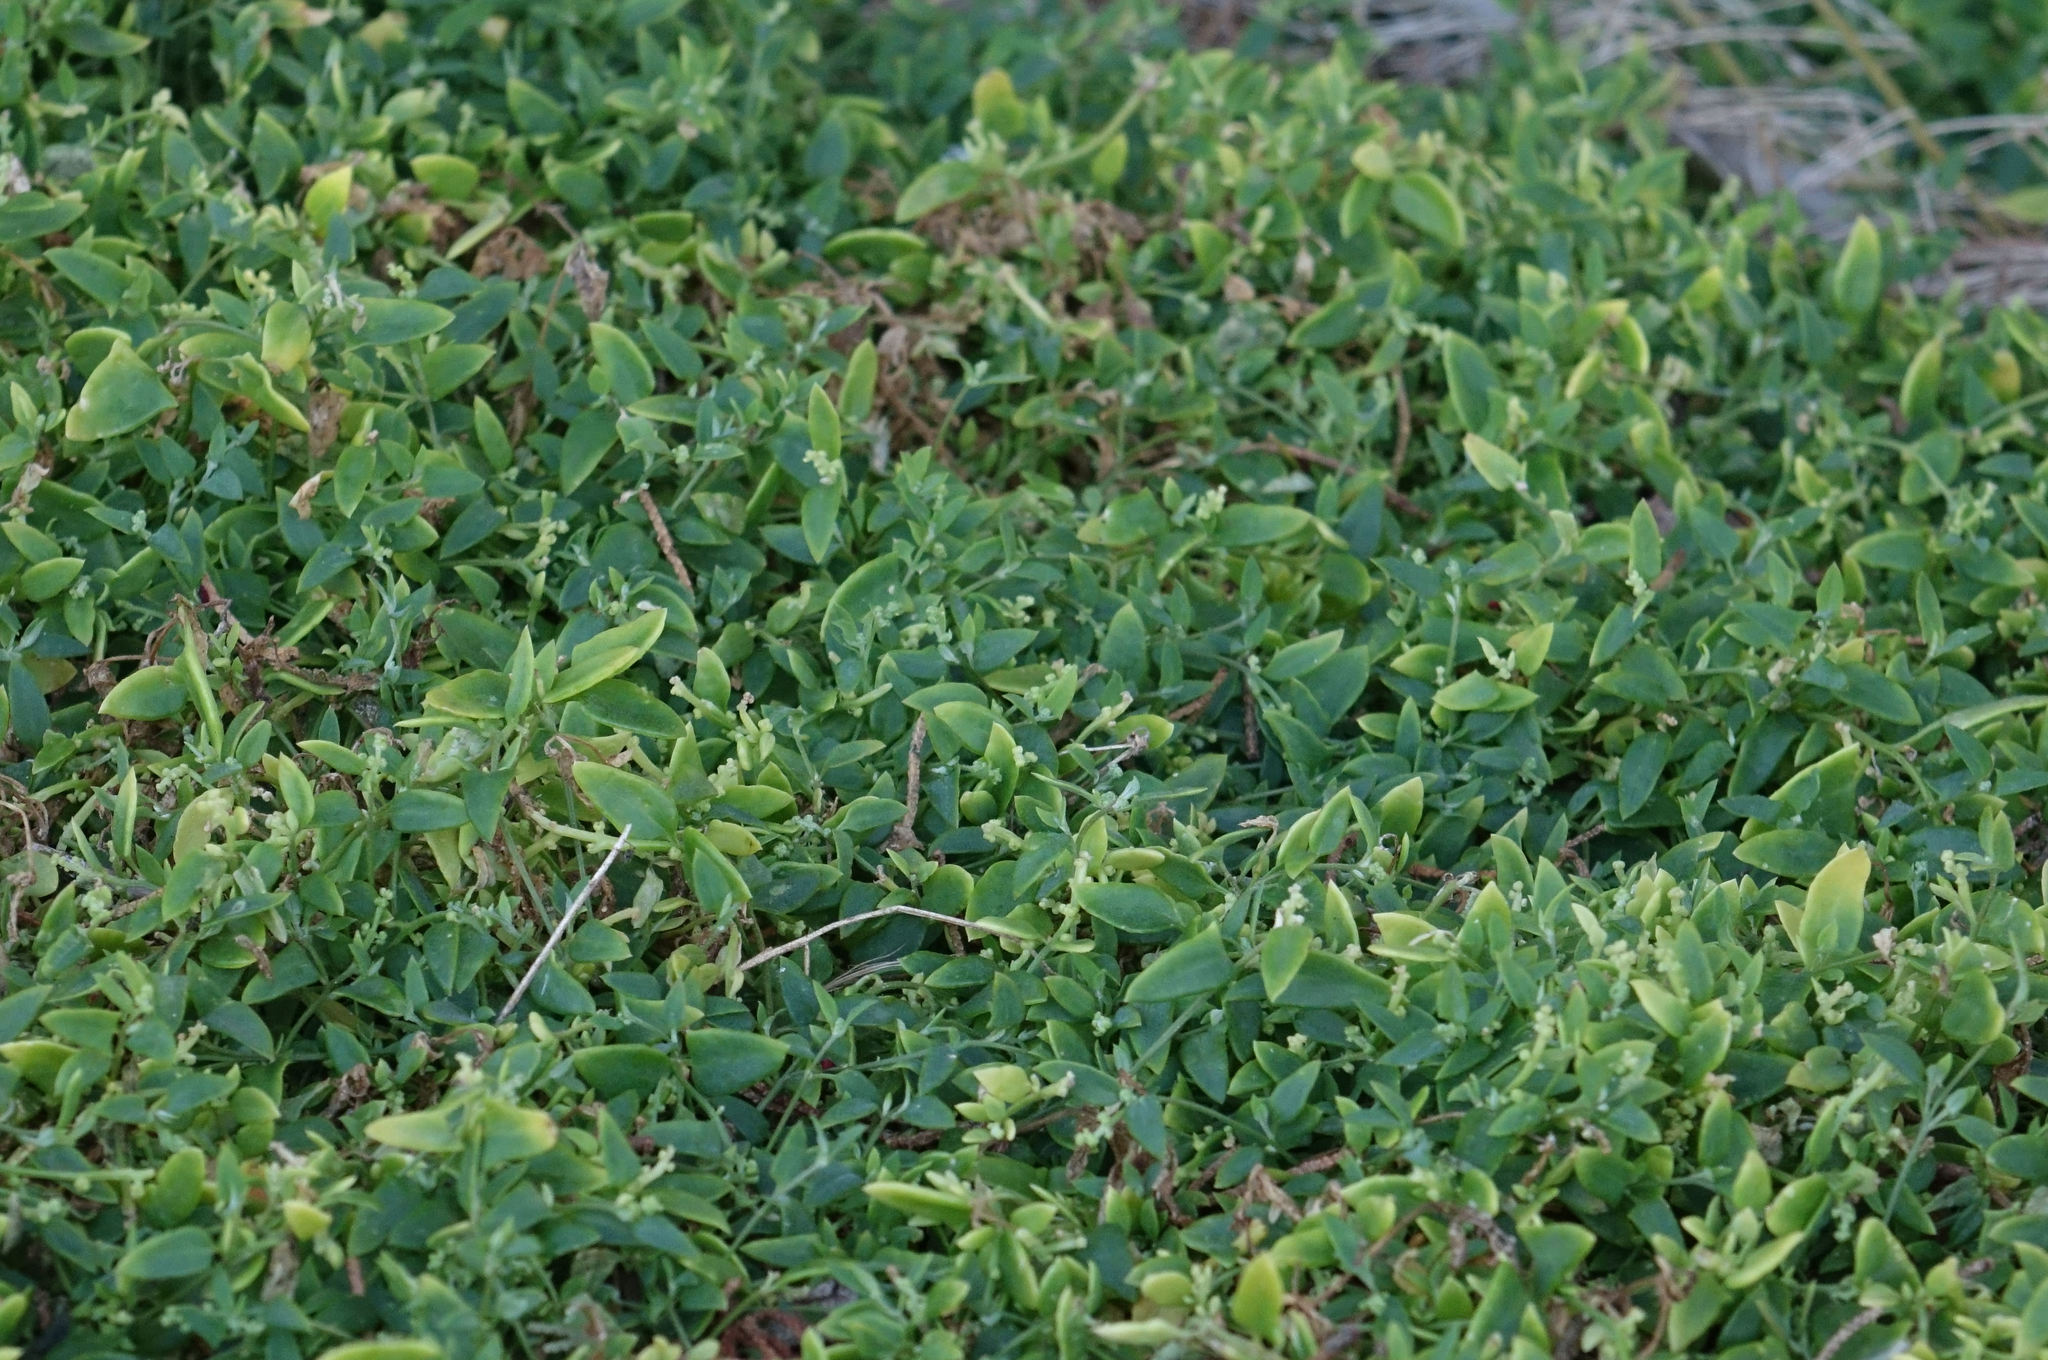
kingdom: Plantae
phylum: Tracheophyta
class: Magnoliopsida
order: Caryophyllales
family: Amaranthaceae
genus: Chenopodium
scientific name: Chenopodium nutans
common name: Climbing-saltbush
